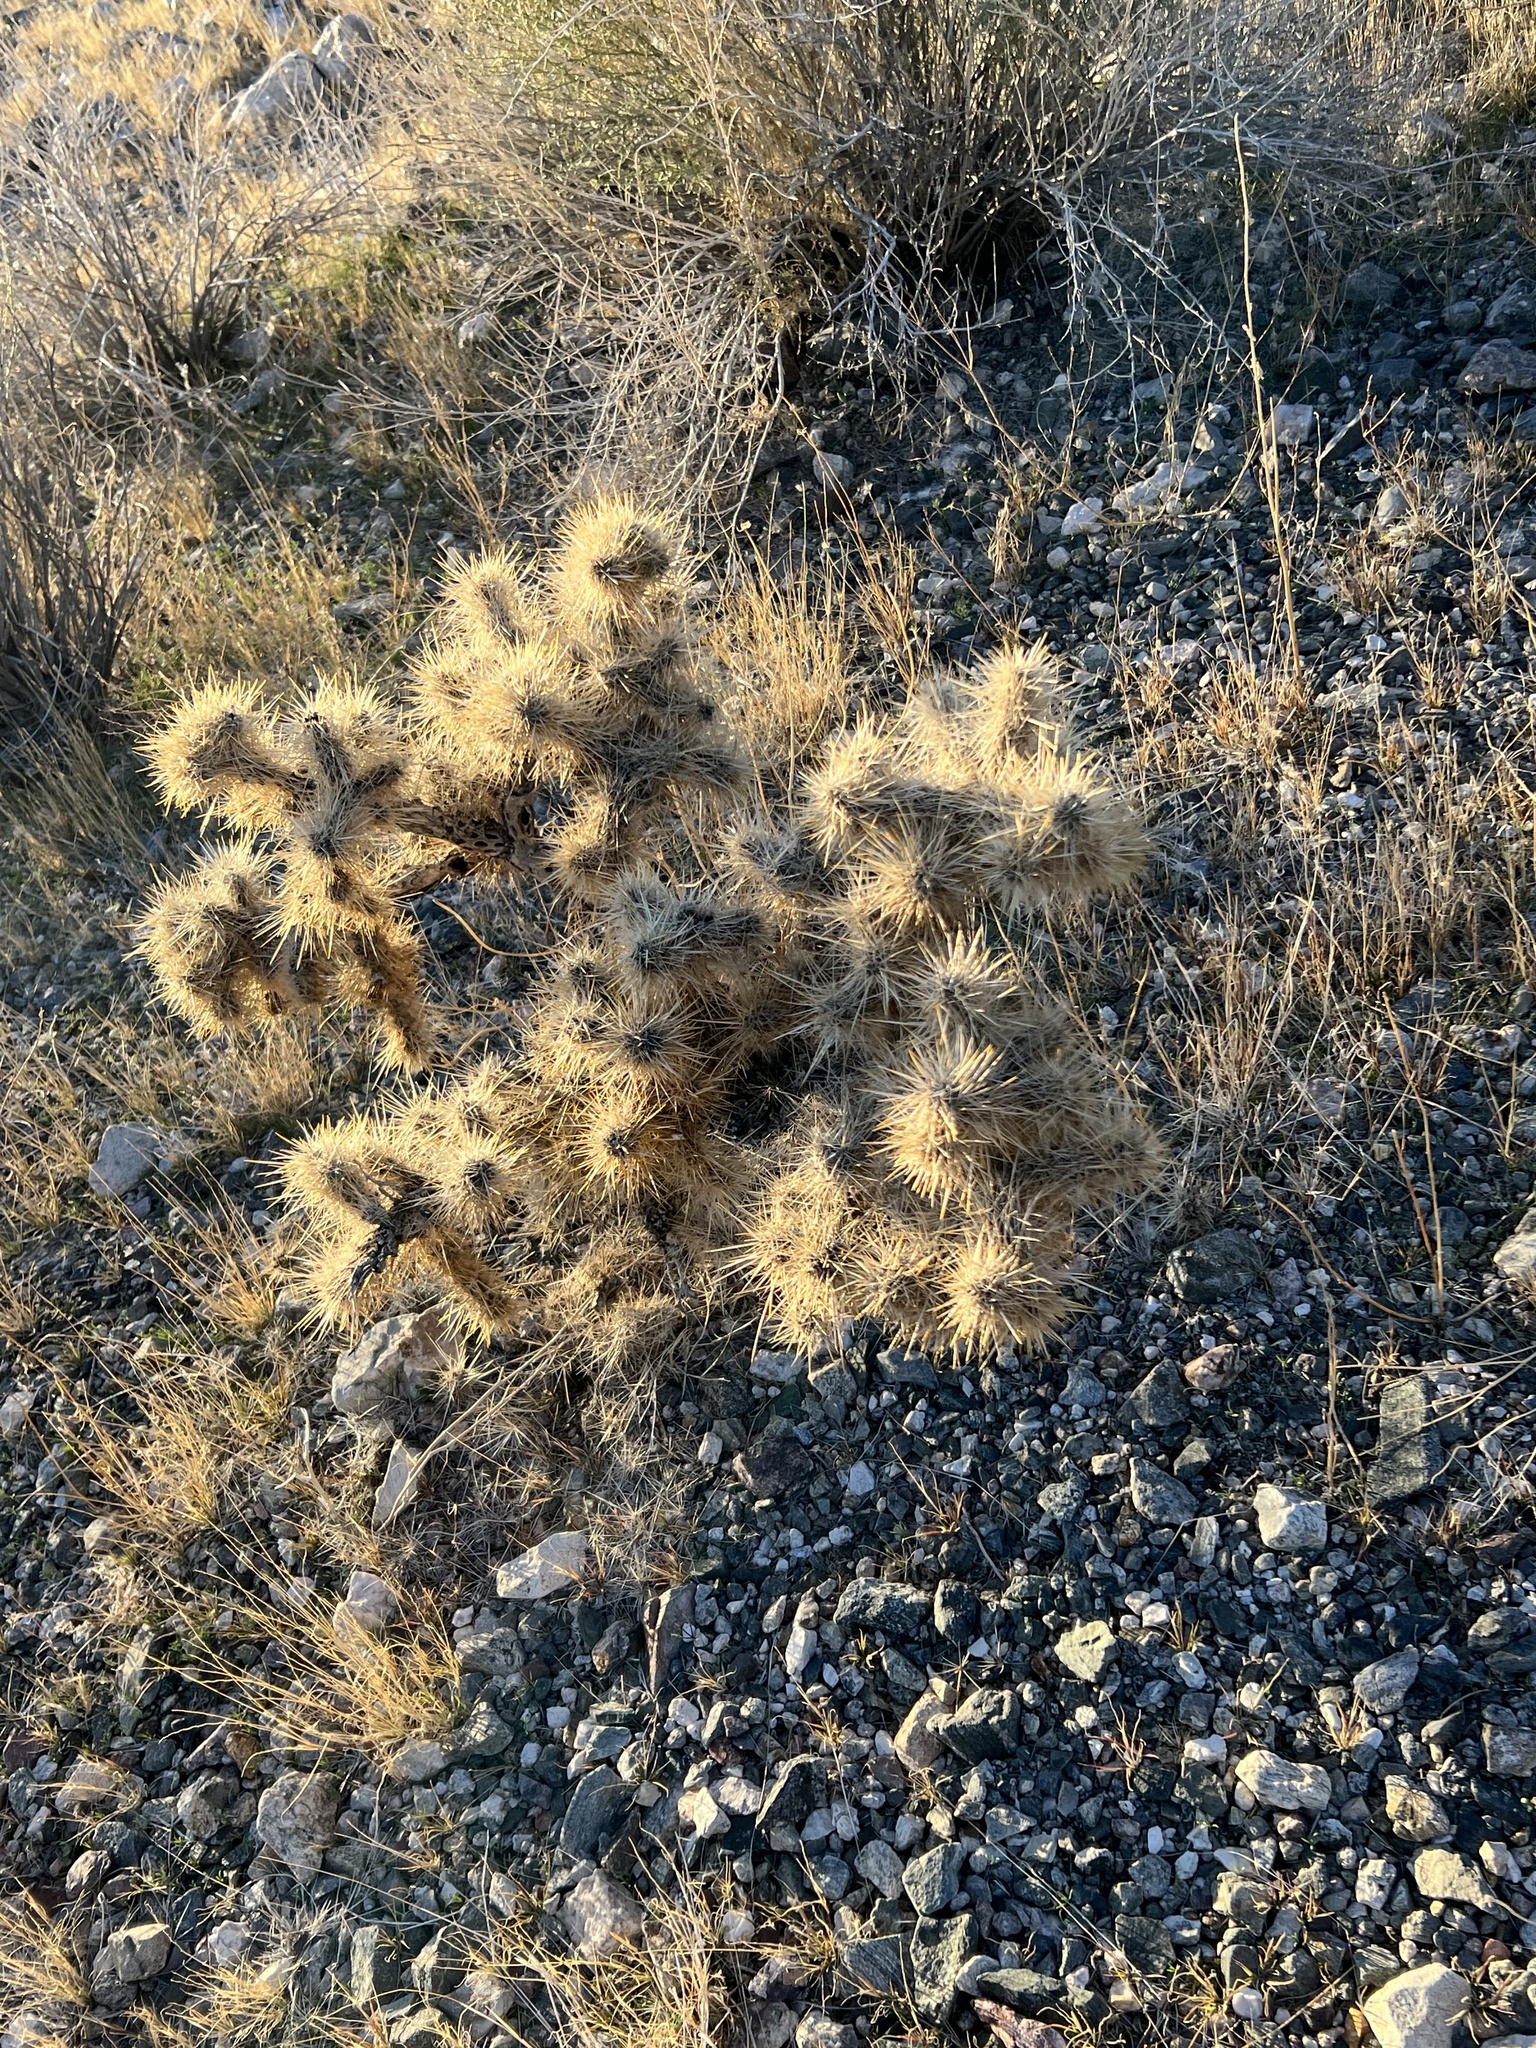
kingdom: Plantae
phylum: Tracheophyta
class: Magnoliopsida
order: Caryophyllales
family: Cactaceae
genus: Cylindropuntia
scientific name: Cylindropuntia echinocarpa
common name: Ground cholla
